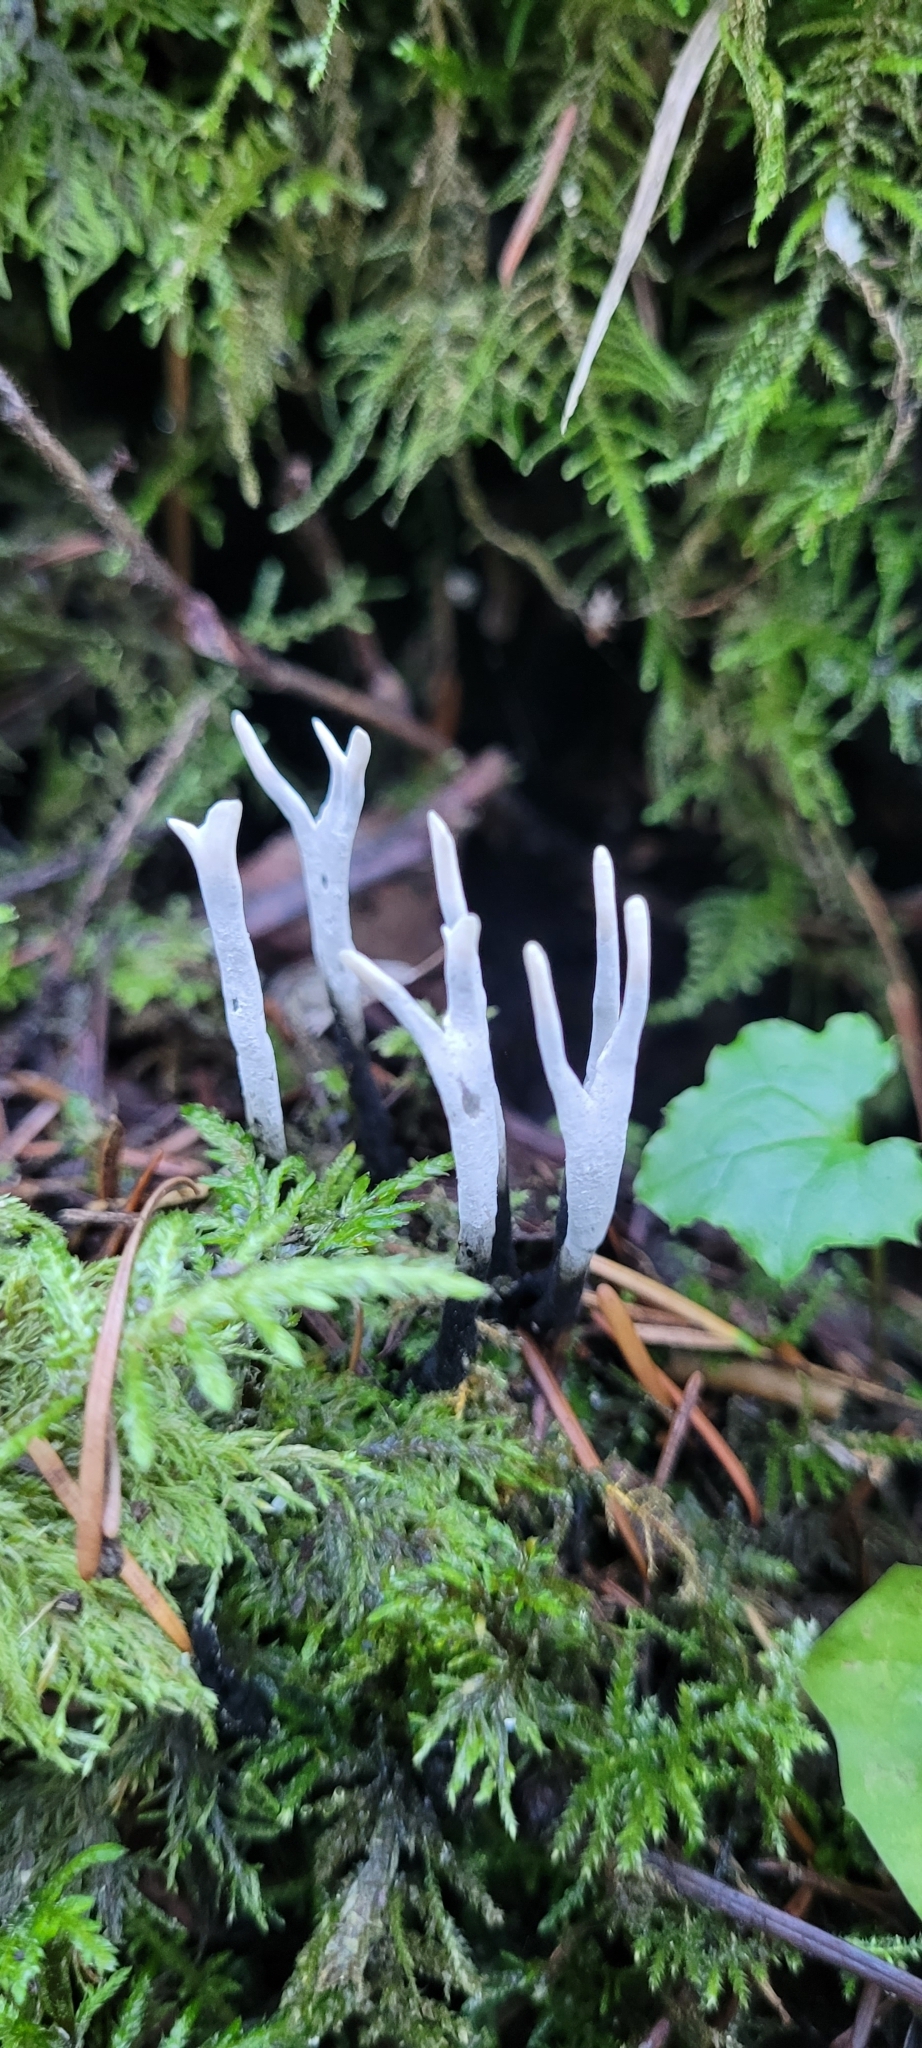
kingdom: Fungi
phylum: Ascomycota
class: Sordariomycetes
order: Xylariales
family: Xylariaceae
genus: Xylaria
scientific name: Xylaria hypoxylon
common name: Candle-snuff fungus
